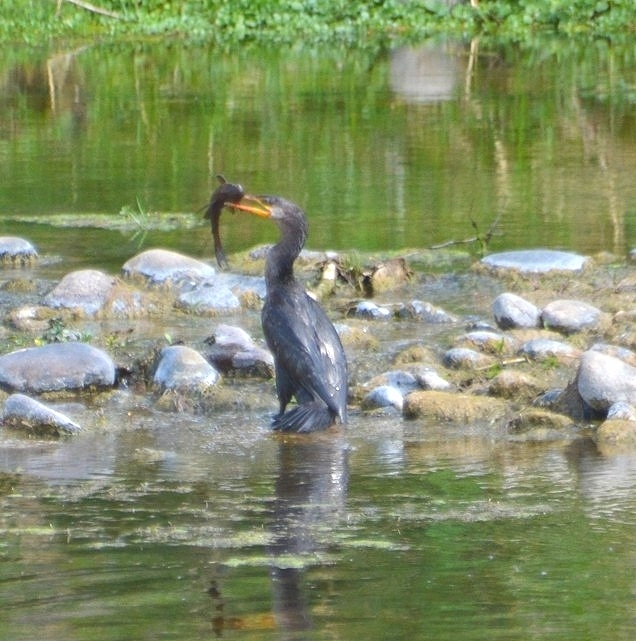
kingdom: Animalia
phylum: Chordata
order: Siluriformes
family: Loricariidae
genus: Hypostomus
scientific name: Hypostomus paranensis
